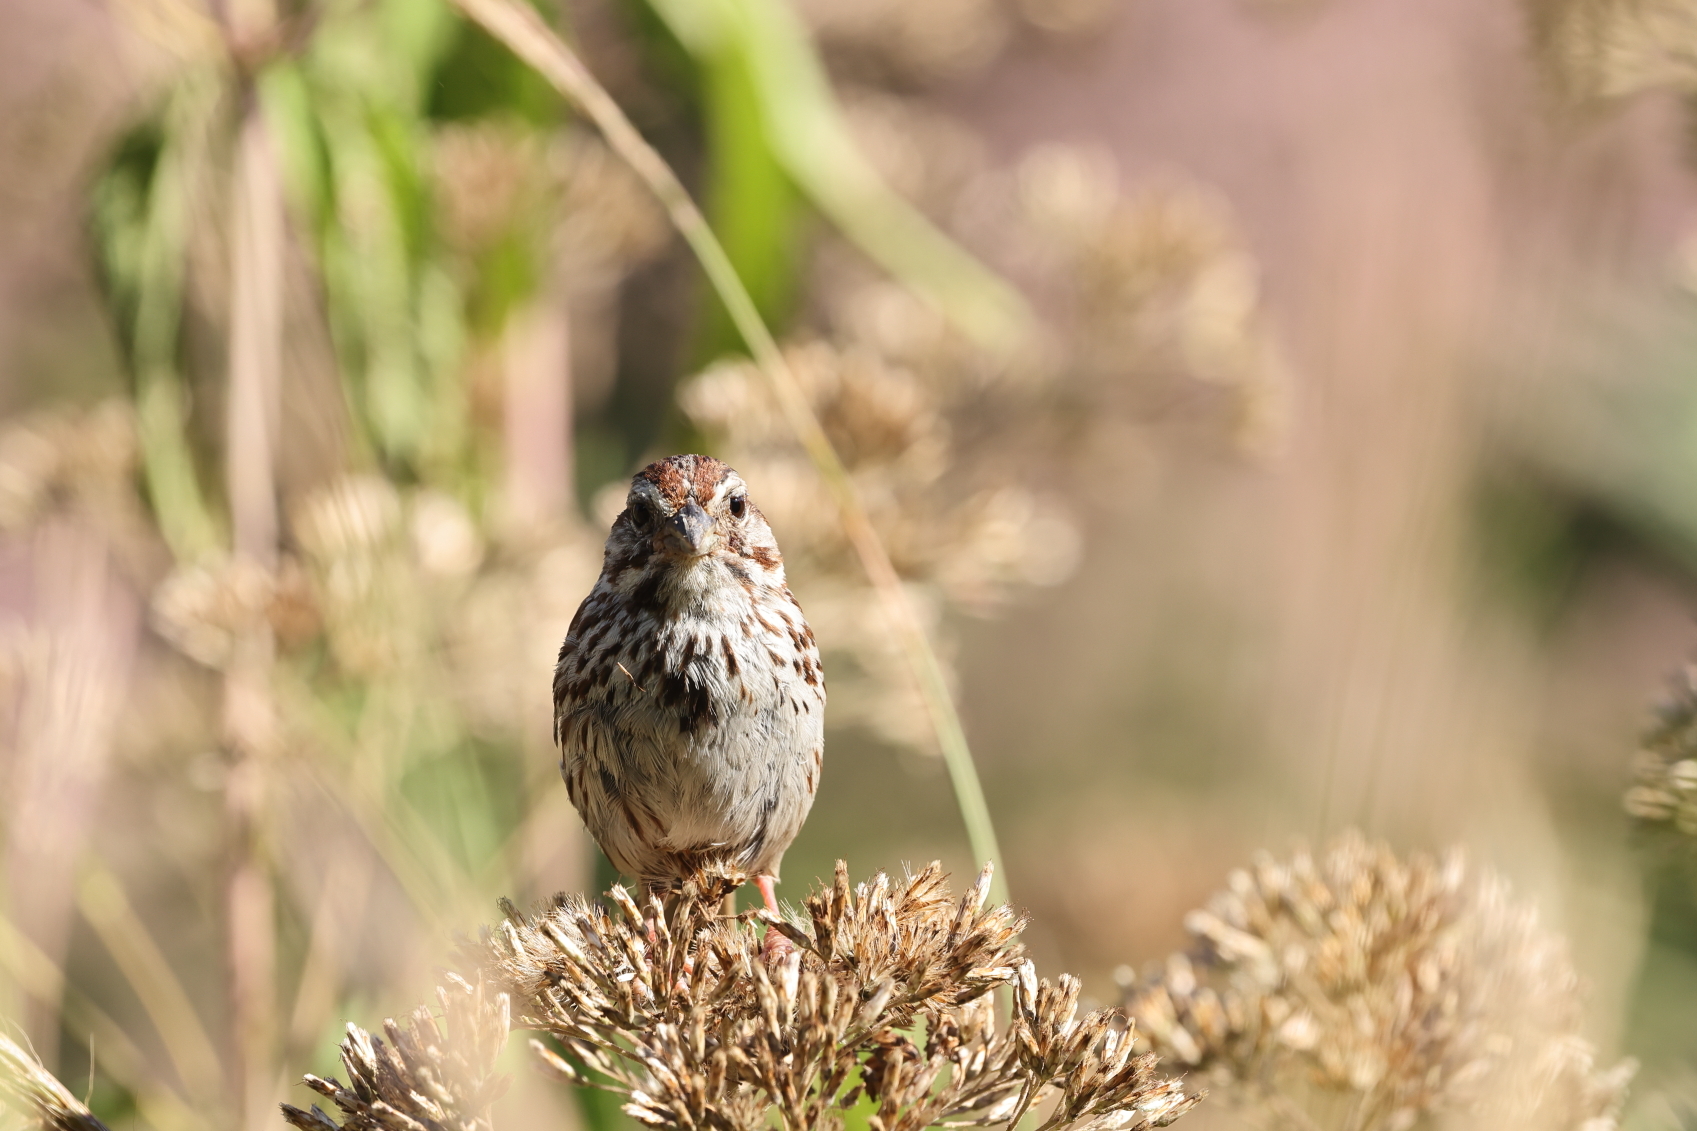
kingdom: Animalia
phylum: Chordata
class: Aves
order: Passeriformes
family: Passerellidae
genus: Melospiza
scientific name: Melospiza melodia
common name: Song sparrow
